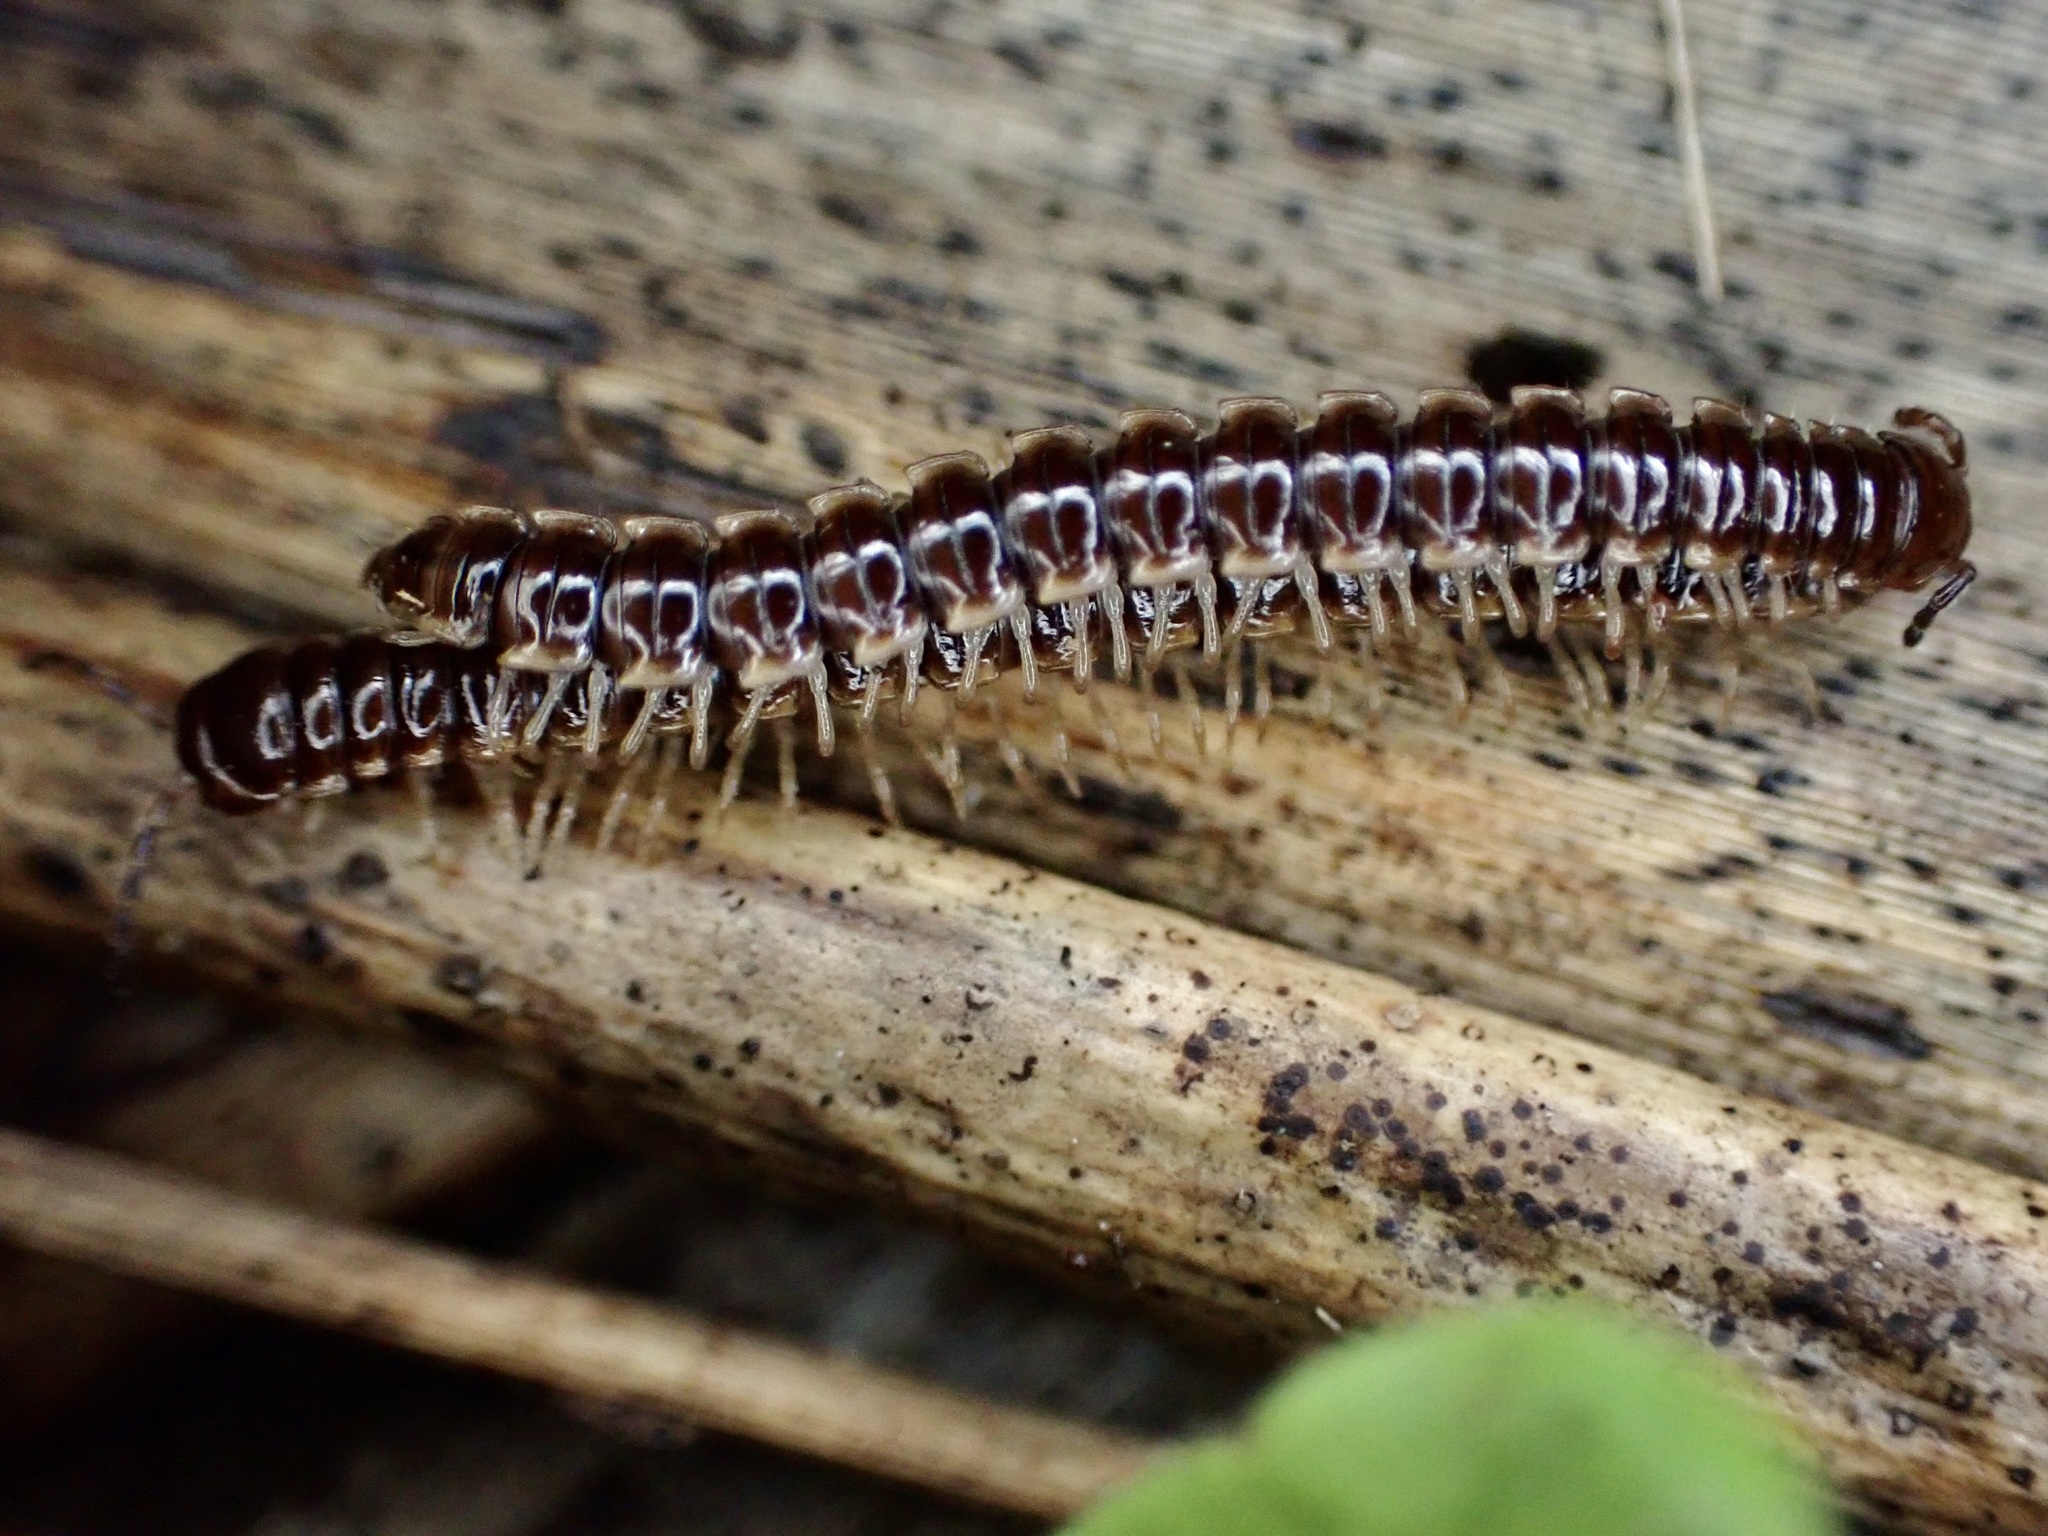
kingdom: Animalia
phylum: Arthropoda
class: Diplopoda
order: Polydesmida
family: Paradoxosomatidae
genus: Oxidus
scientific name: Oxidus gracilis
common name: Greenhouse millipede
